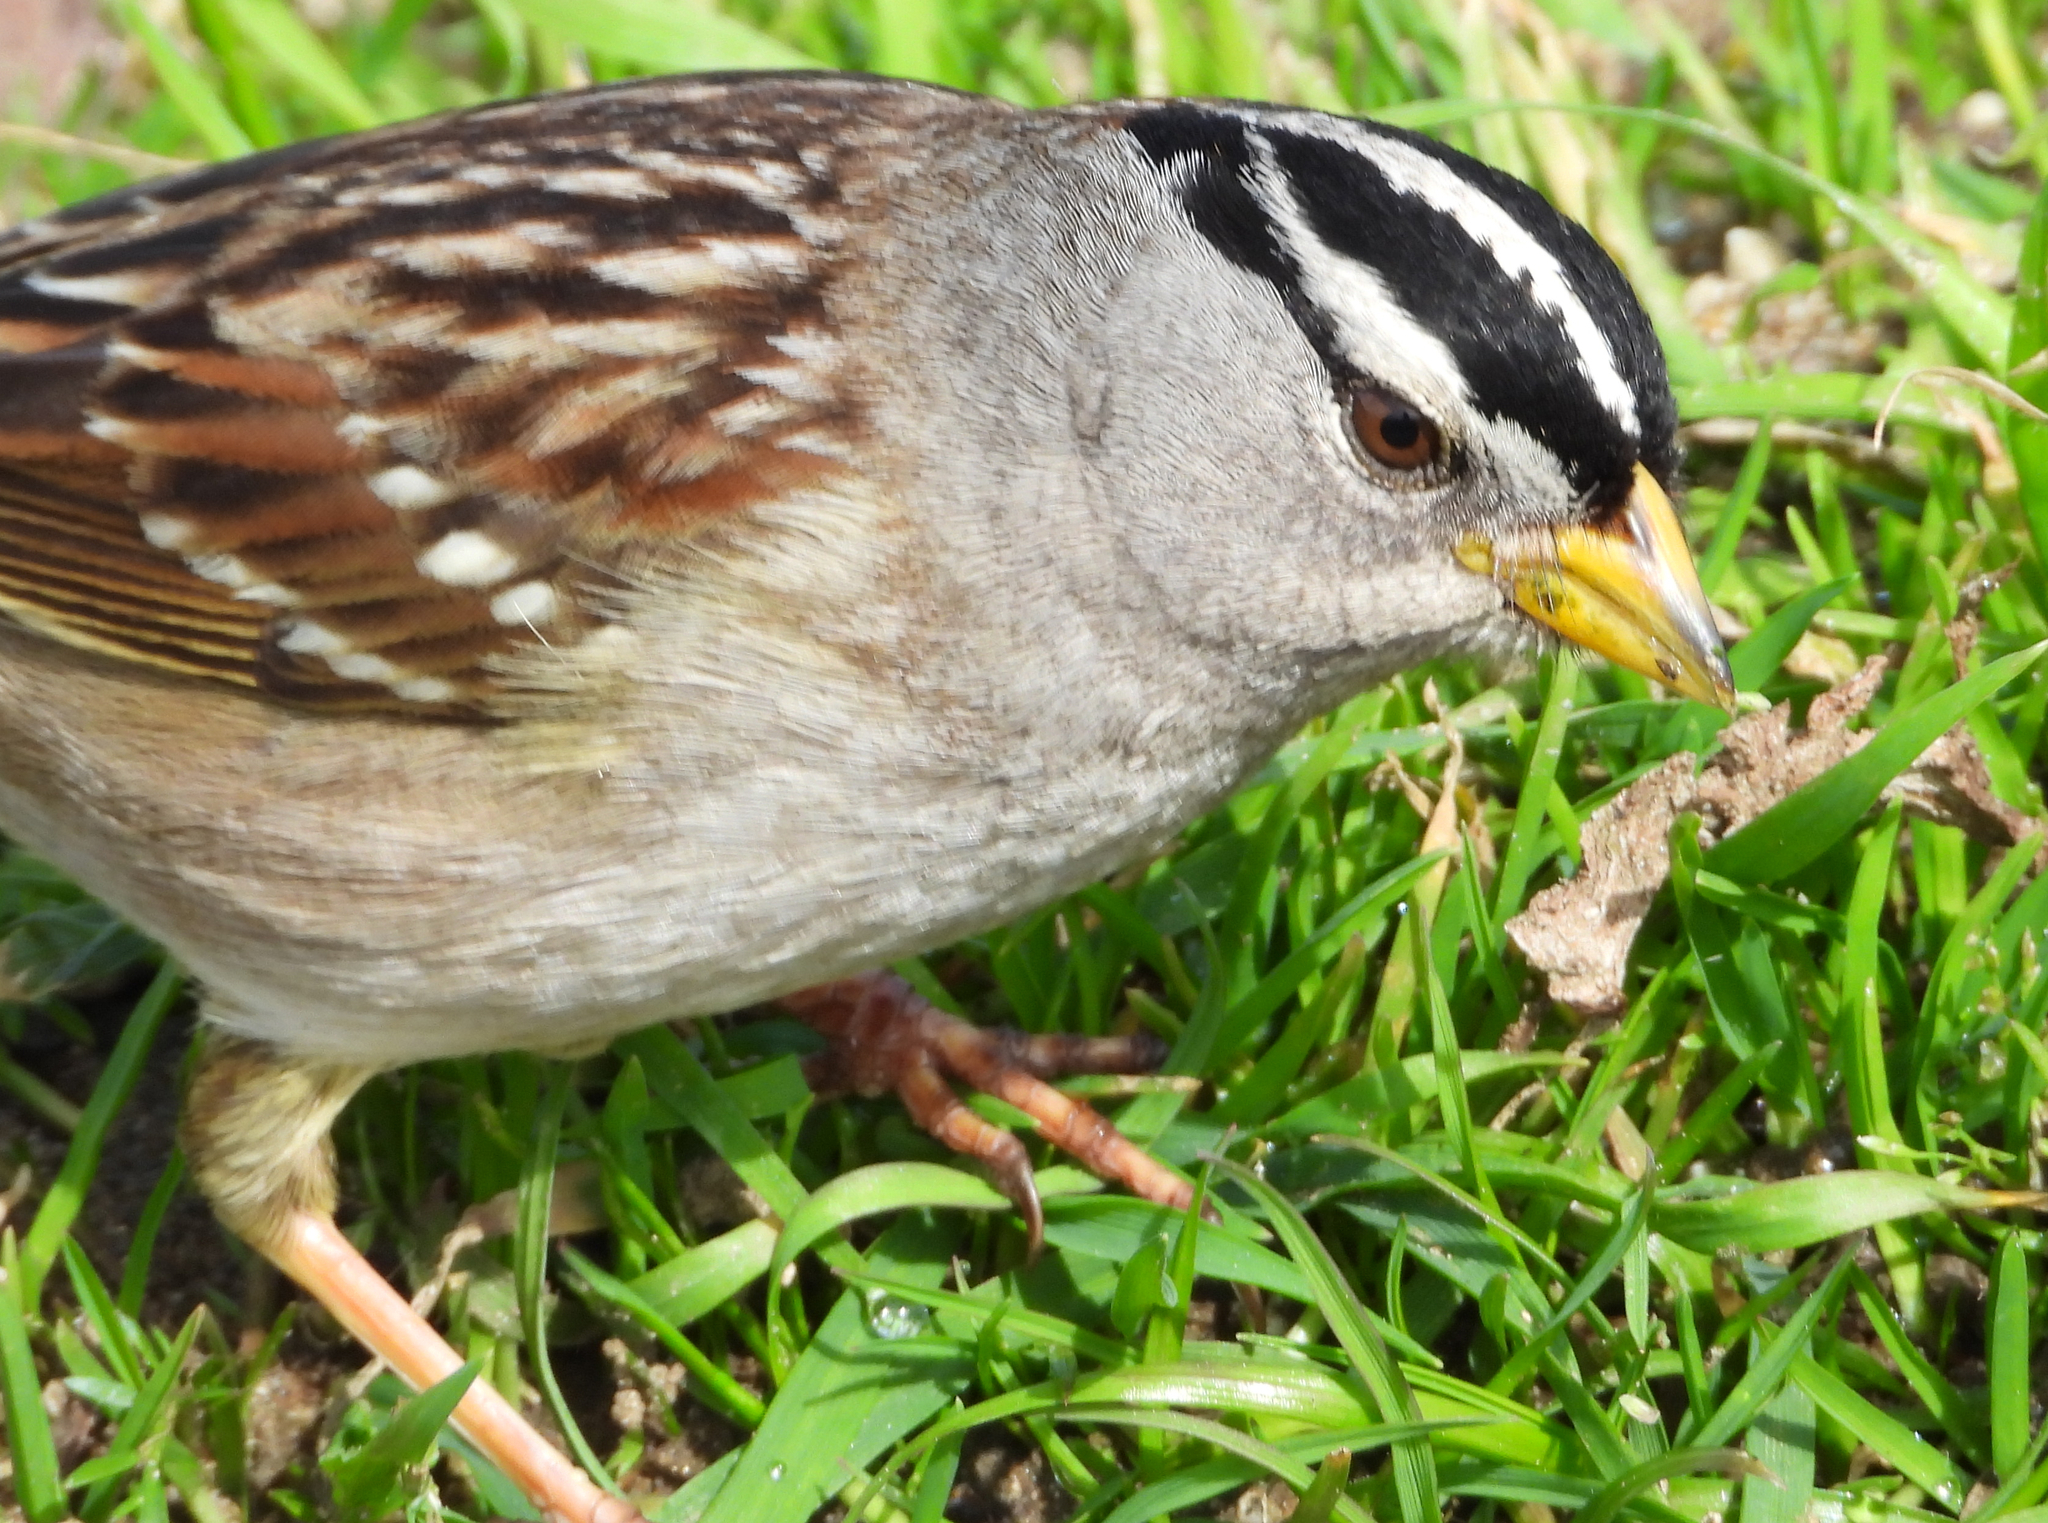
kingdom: Animalia
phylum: Chordata
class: Aves
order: Passeriformes
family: Passerellidae
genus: Zonotrichia
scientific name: Zonotrichia leucophrys
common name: White-crowned sparrow
